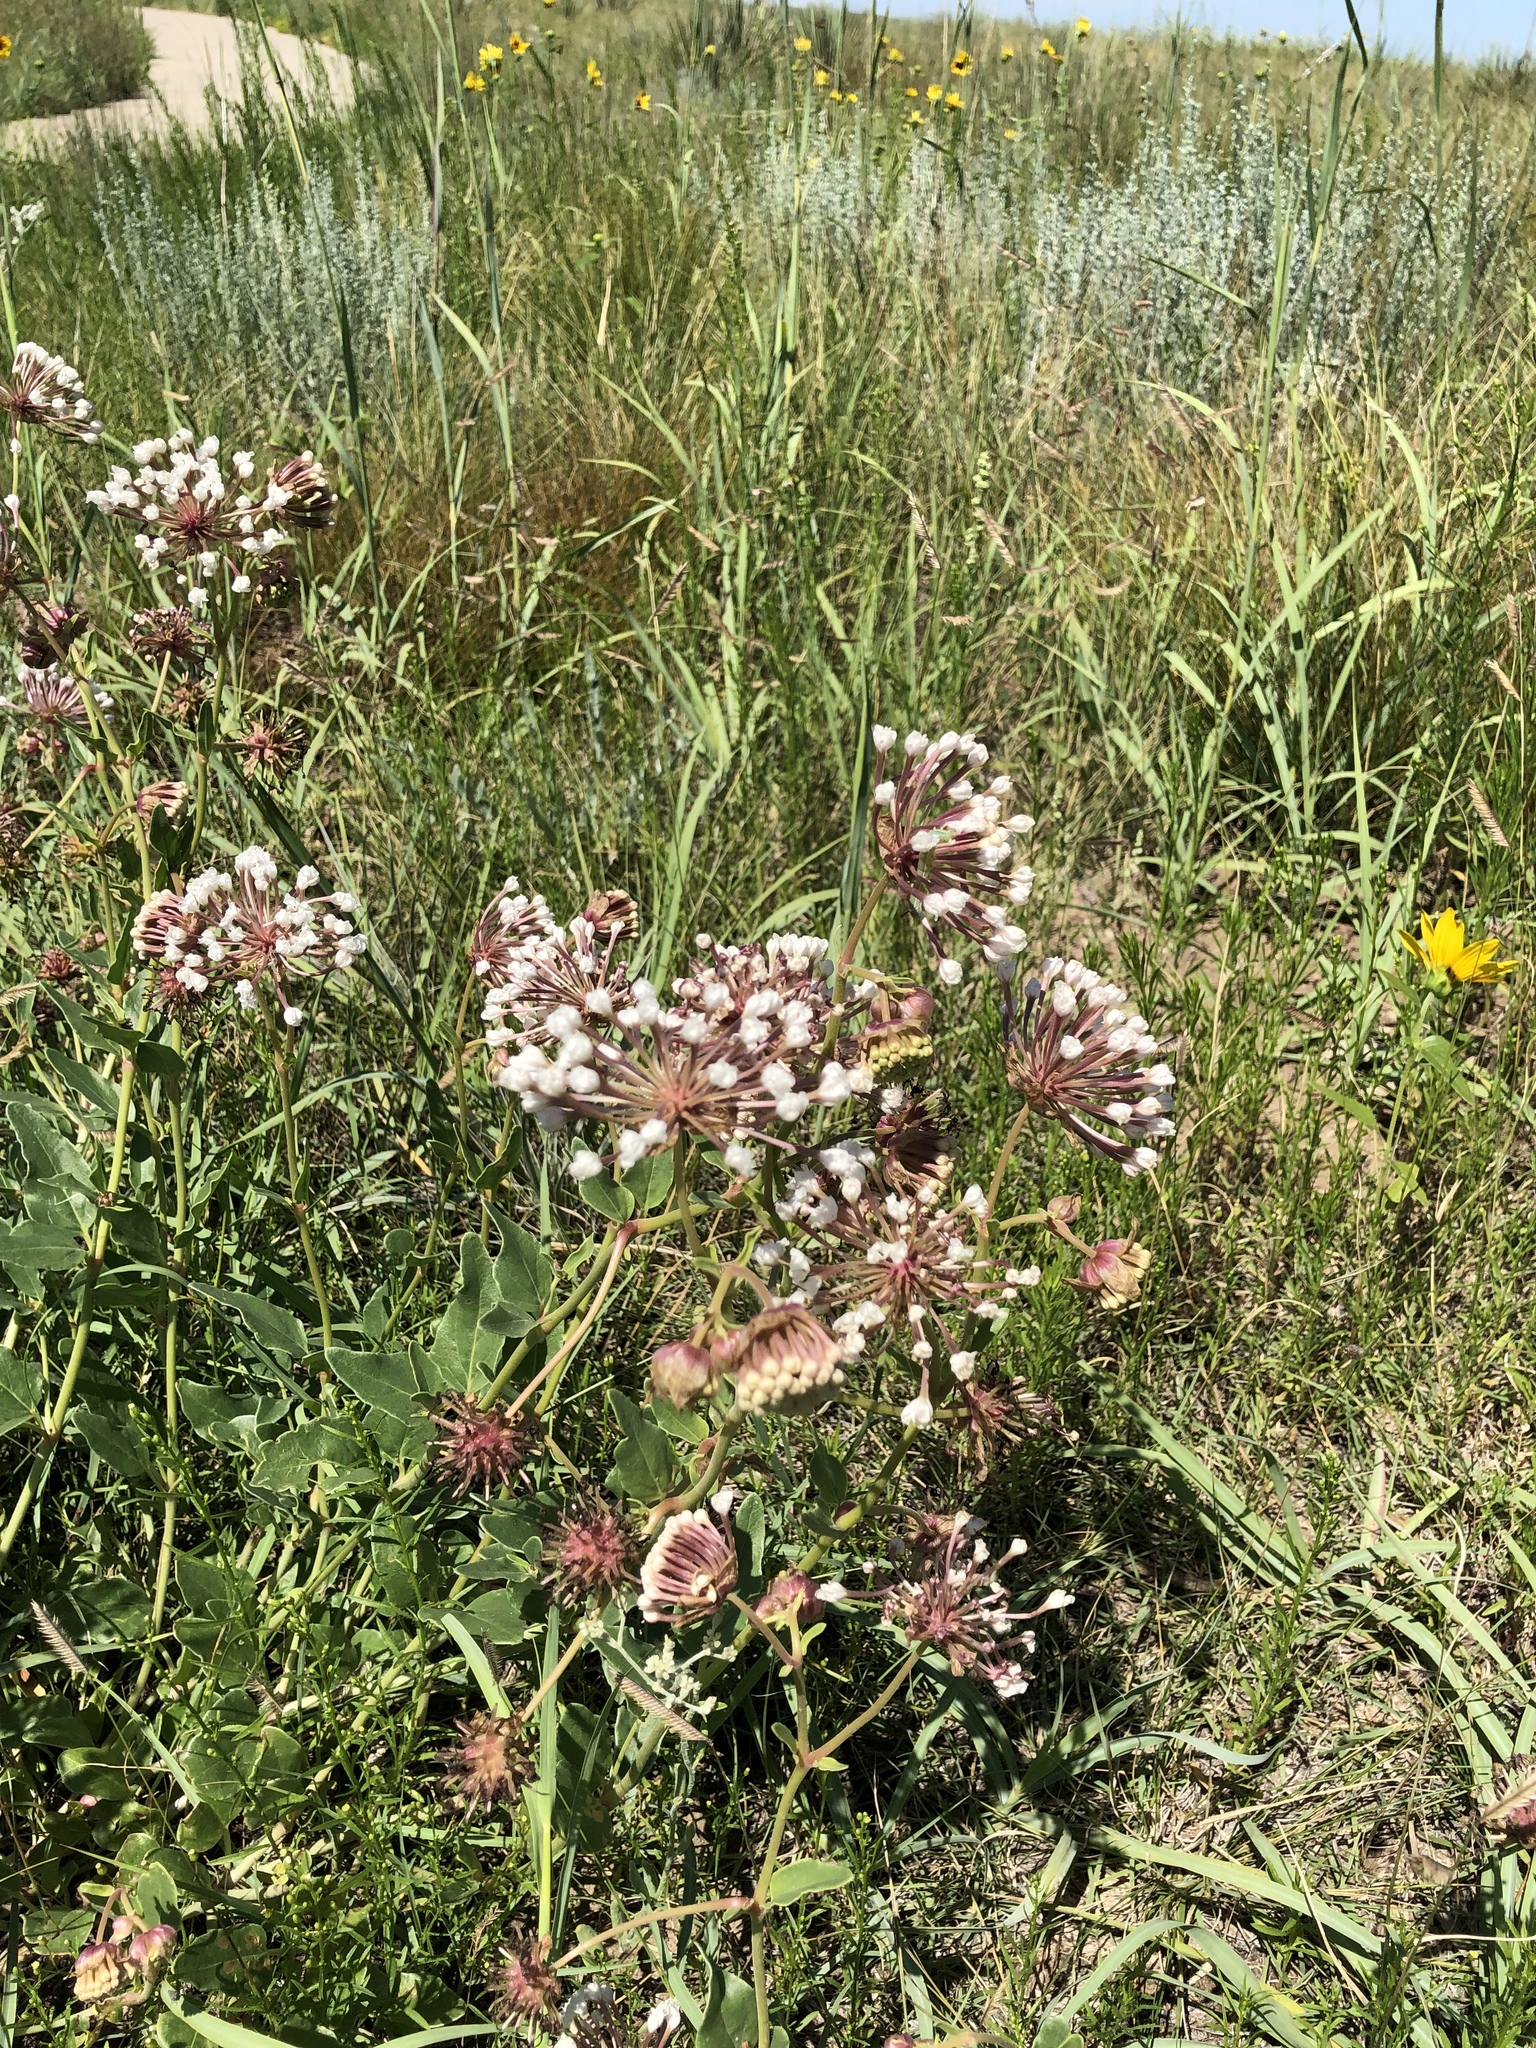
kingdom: Plantae
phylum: Tracheophyta
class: Magnoliopsida
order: Caryophyllales
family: Nyctaginaceae
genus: Abronia
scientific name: Abronia fragrans
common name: Fragrant sand-verbena
